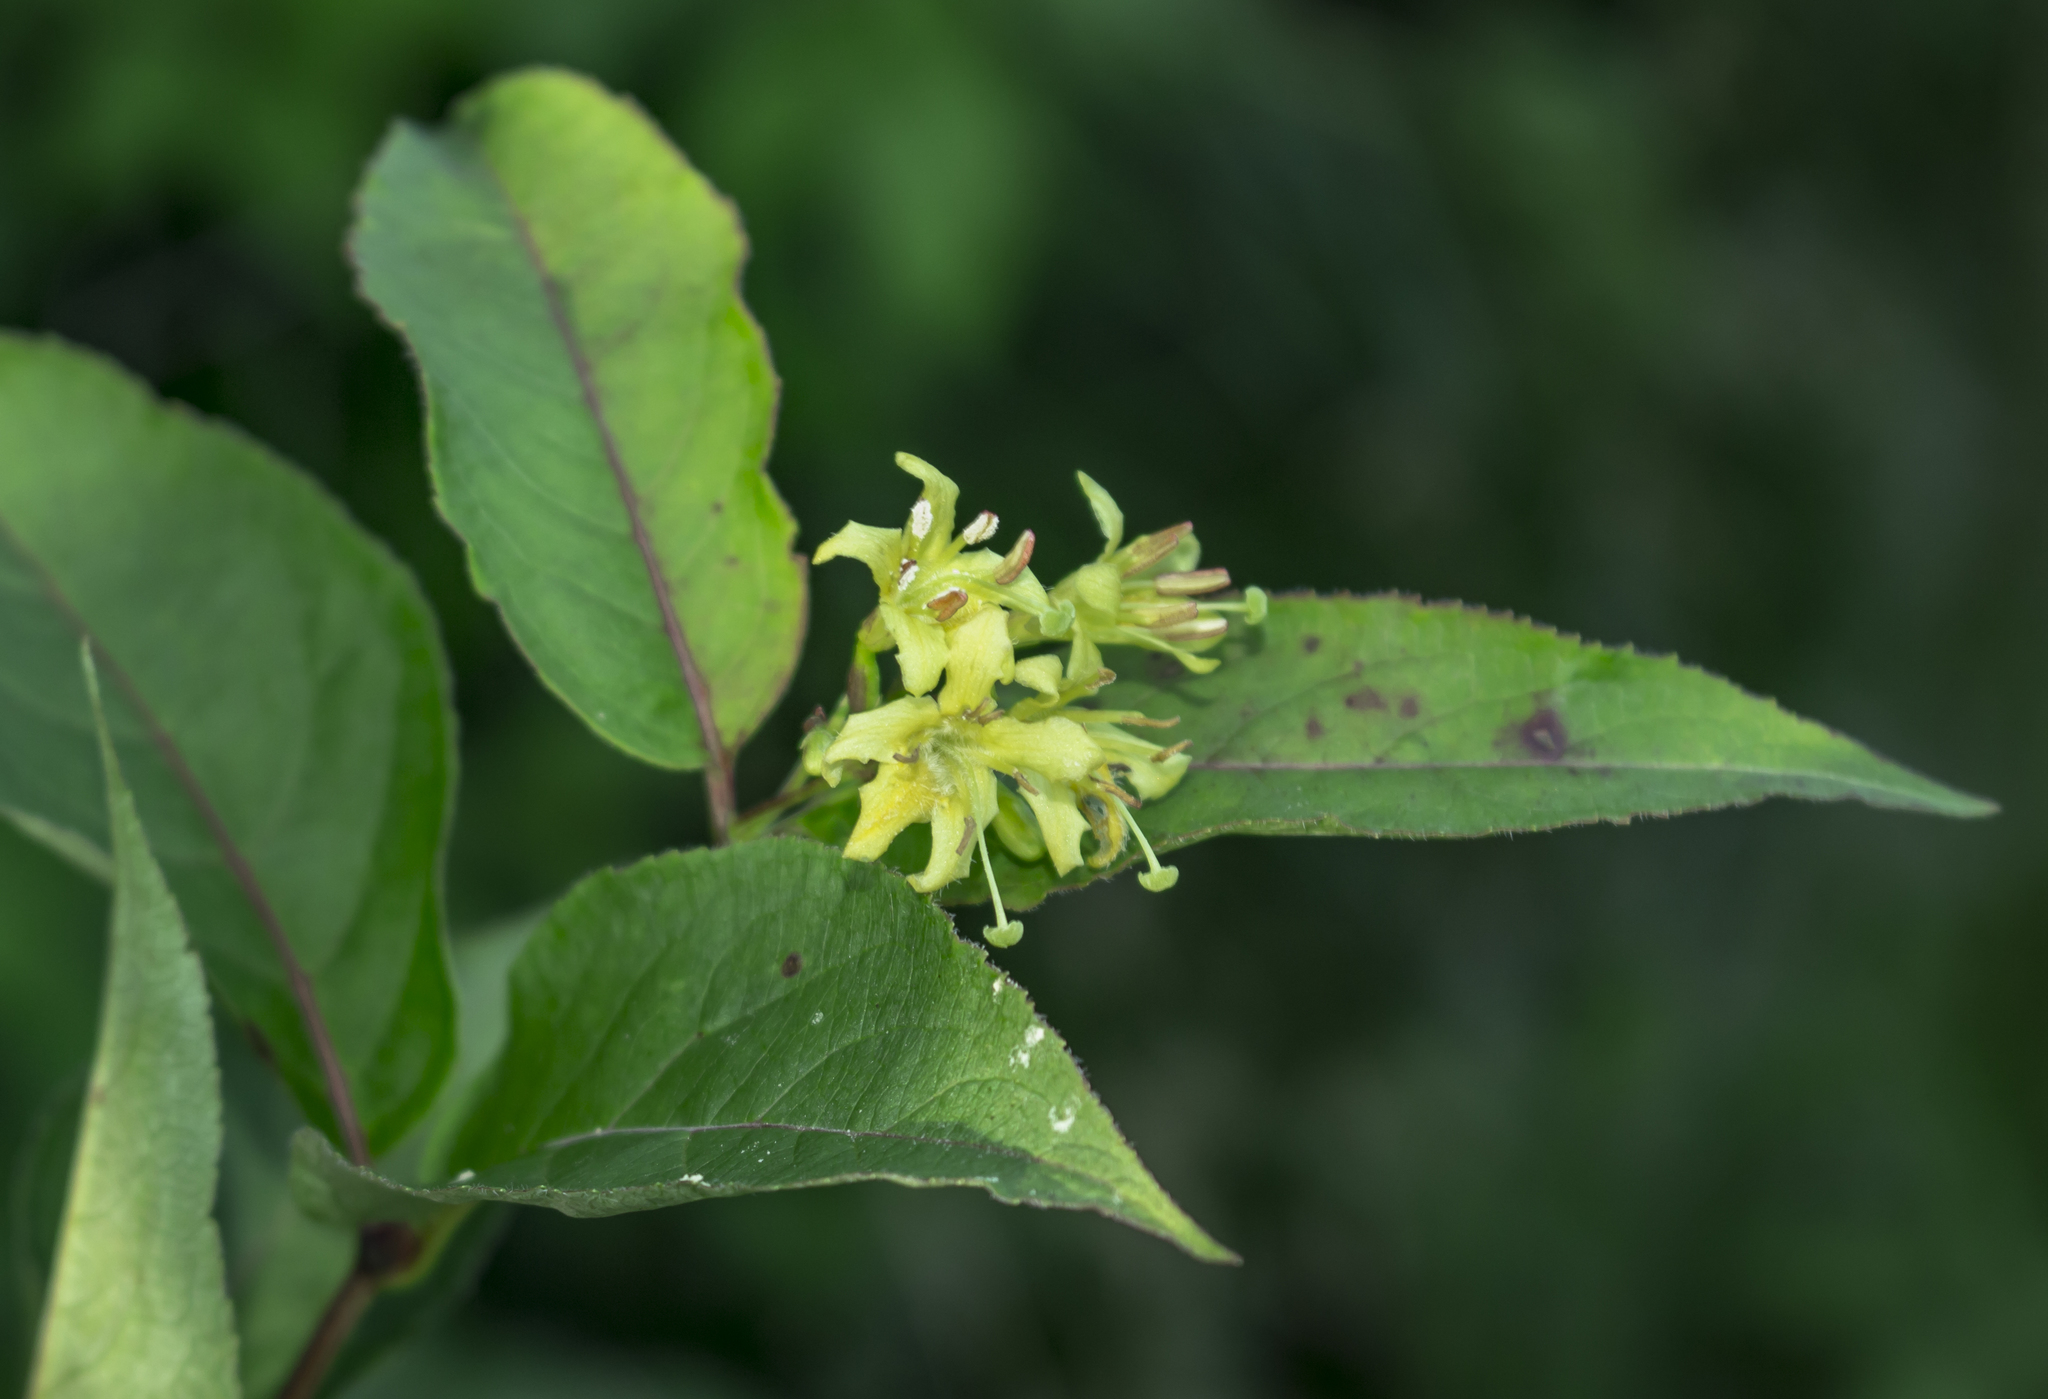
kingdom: Plantae
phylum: Tracheophyta
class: Magnoliopsida
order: Dipsacales
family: Caprifoliaceae
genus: Diervilla
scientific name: Diervilla lonicera
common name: Bush-honeysuckle
